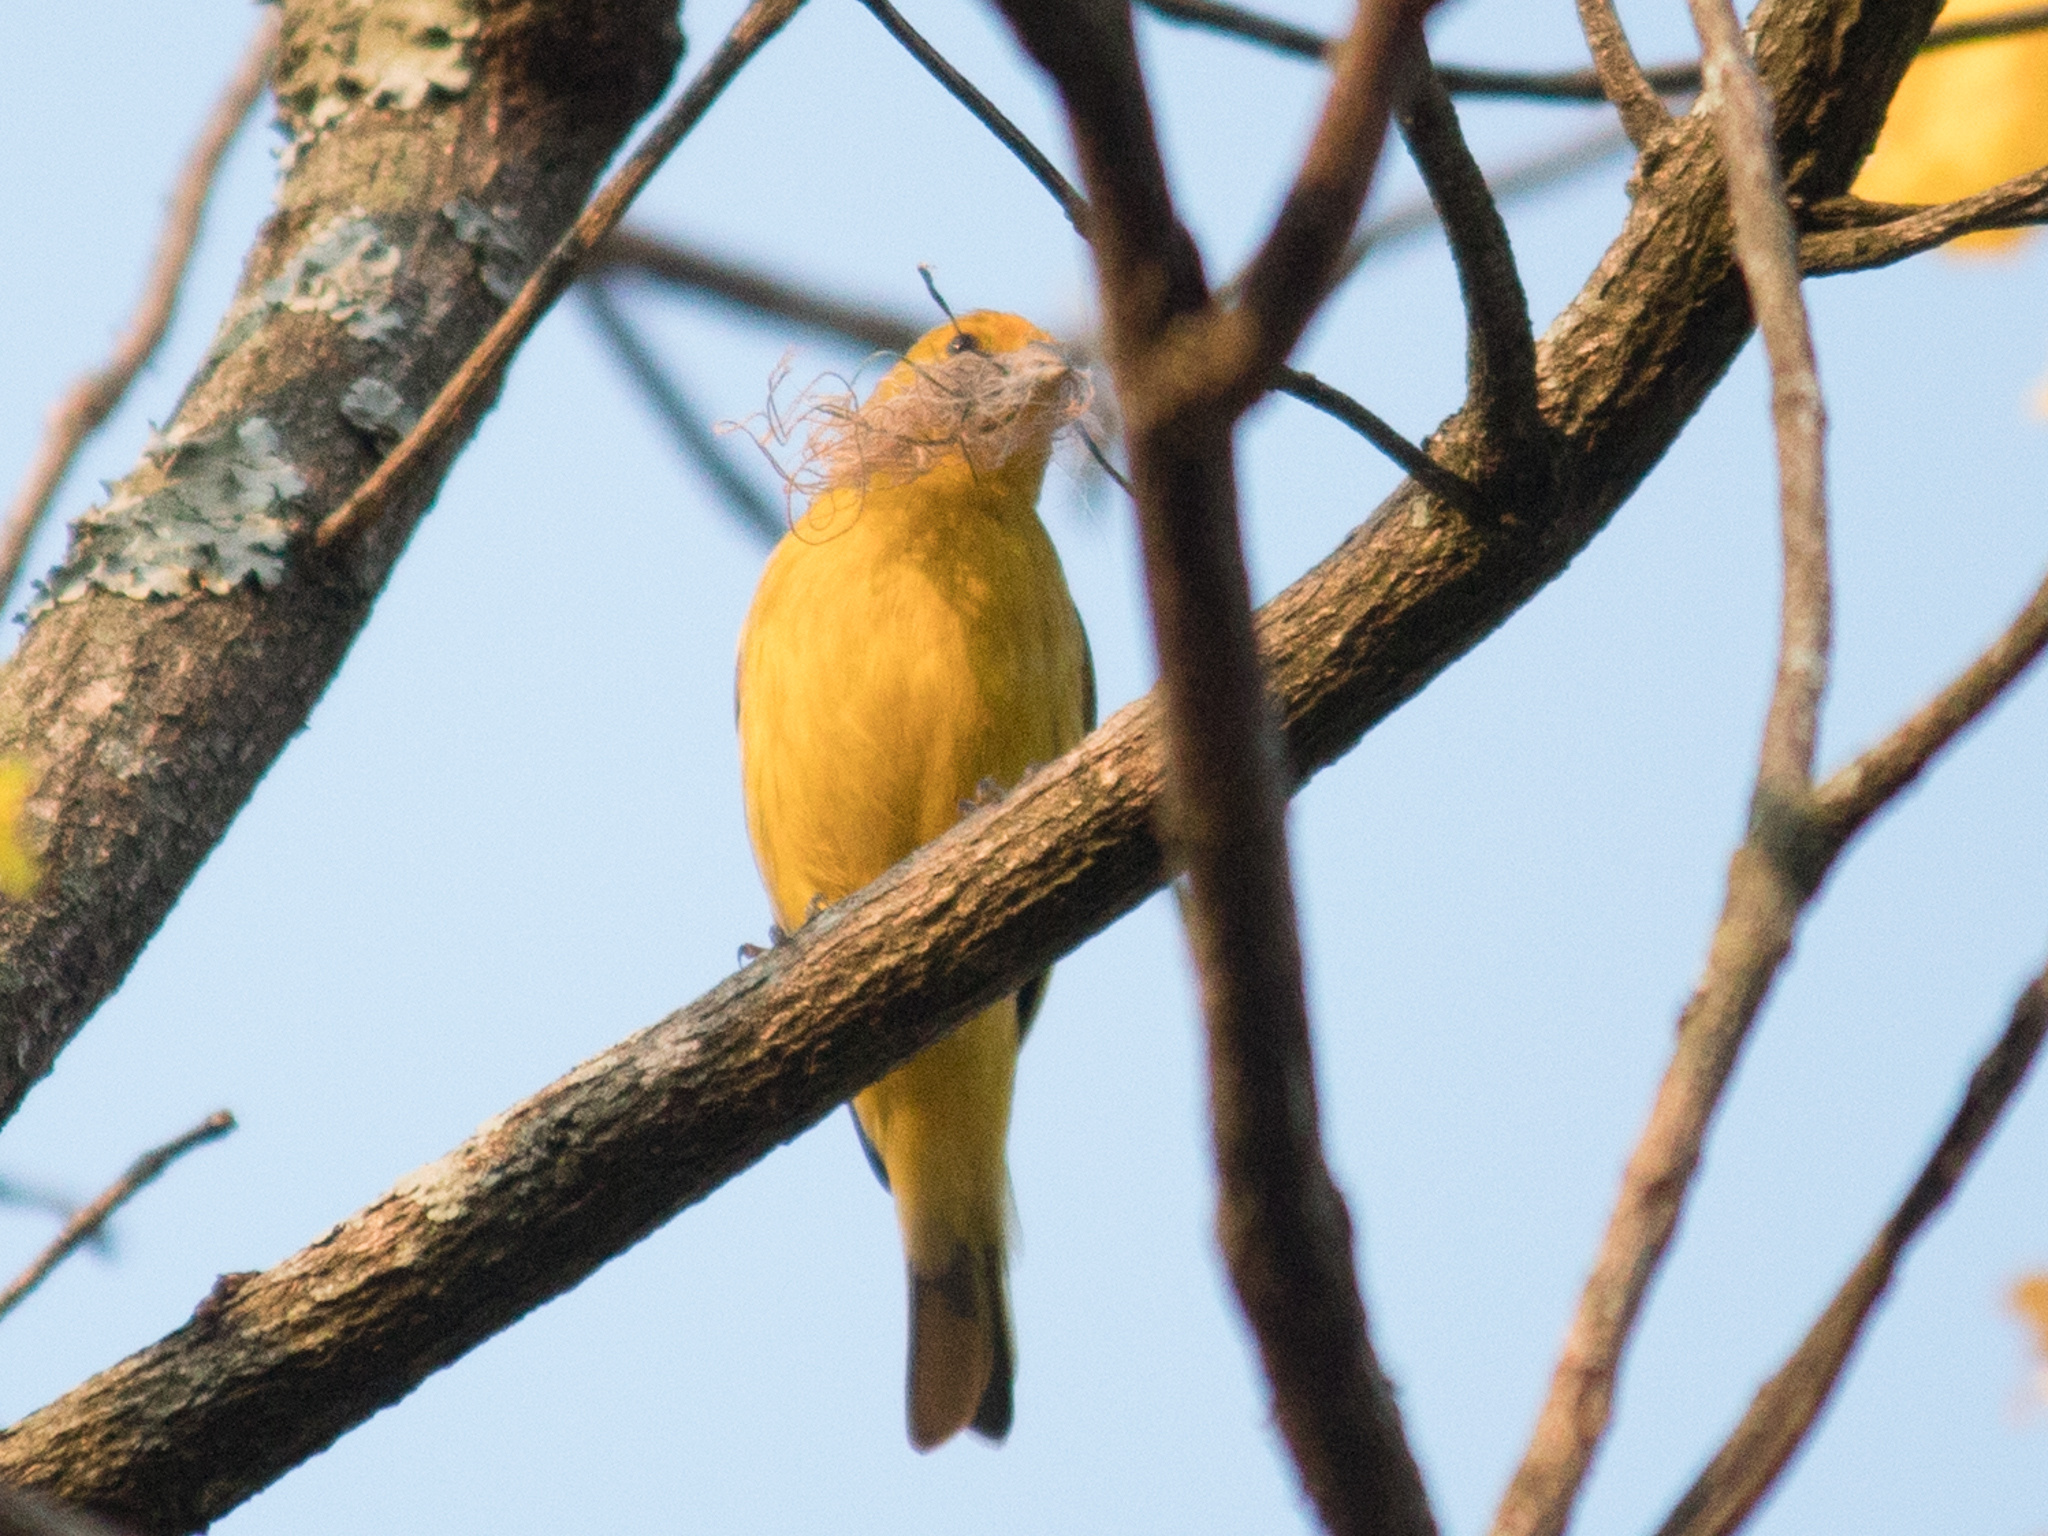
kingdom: Animalia
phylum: Chordata
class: Aves
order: Passeriformes
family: Thraupidae
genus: Sicalis
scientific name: Sicalis flaveola
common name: Saffron finch
